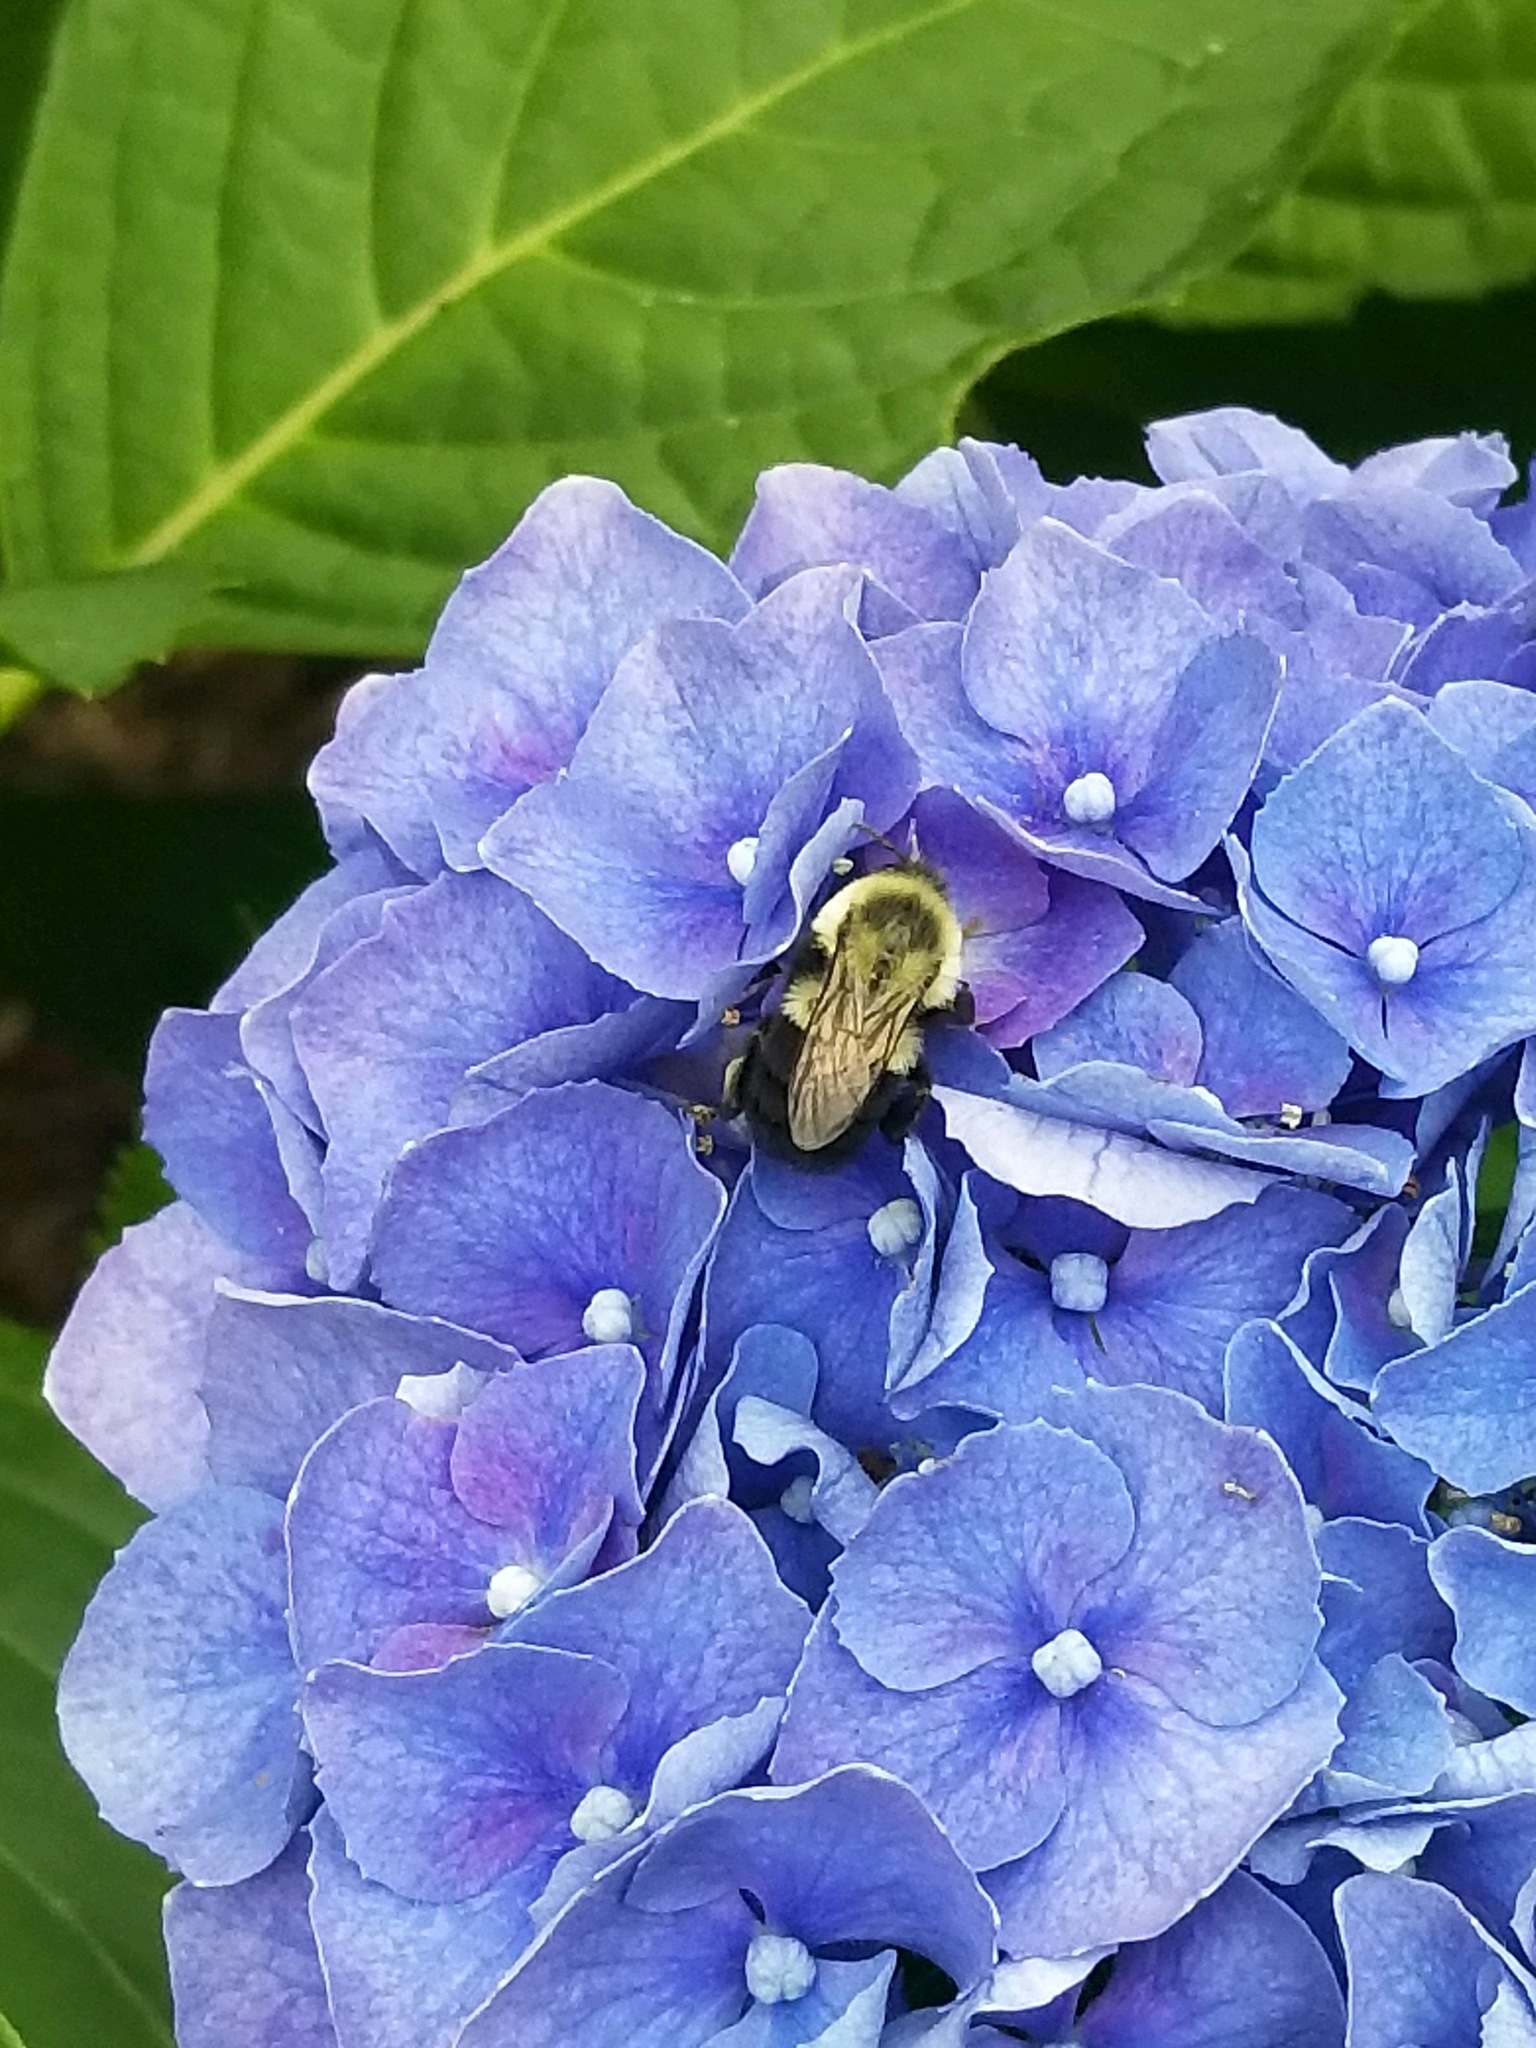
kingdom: Animalia
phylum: Arthropoda
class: Insecta
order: Hymenoptera
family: Apidae
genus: Bombus
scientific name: Bombus impatiens
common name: Common eastern bumble bee
